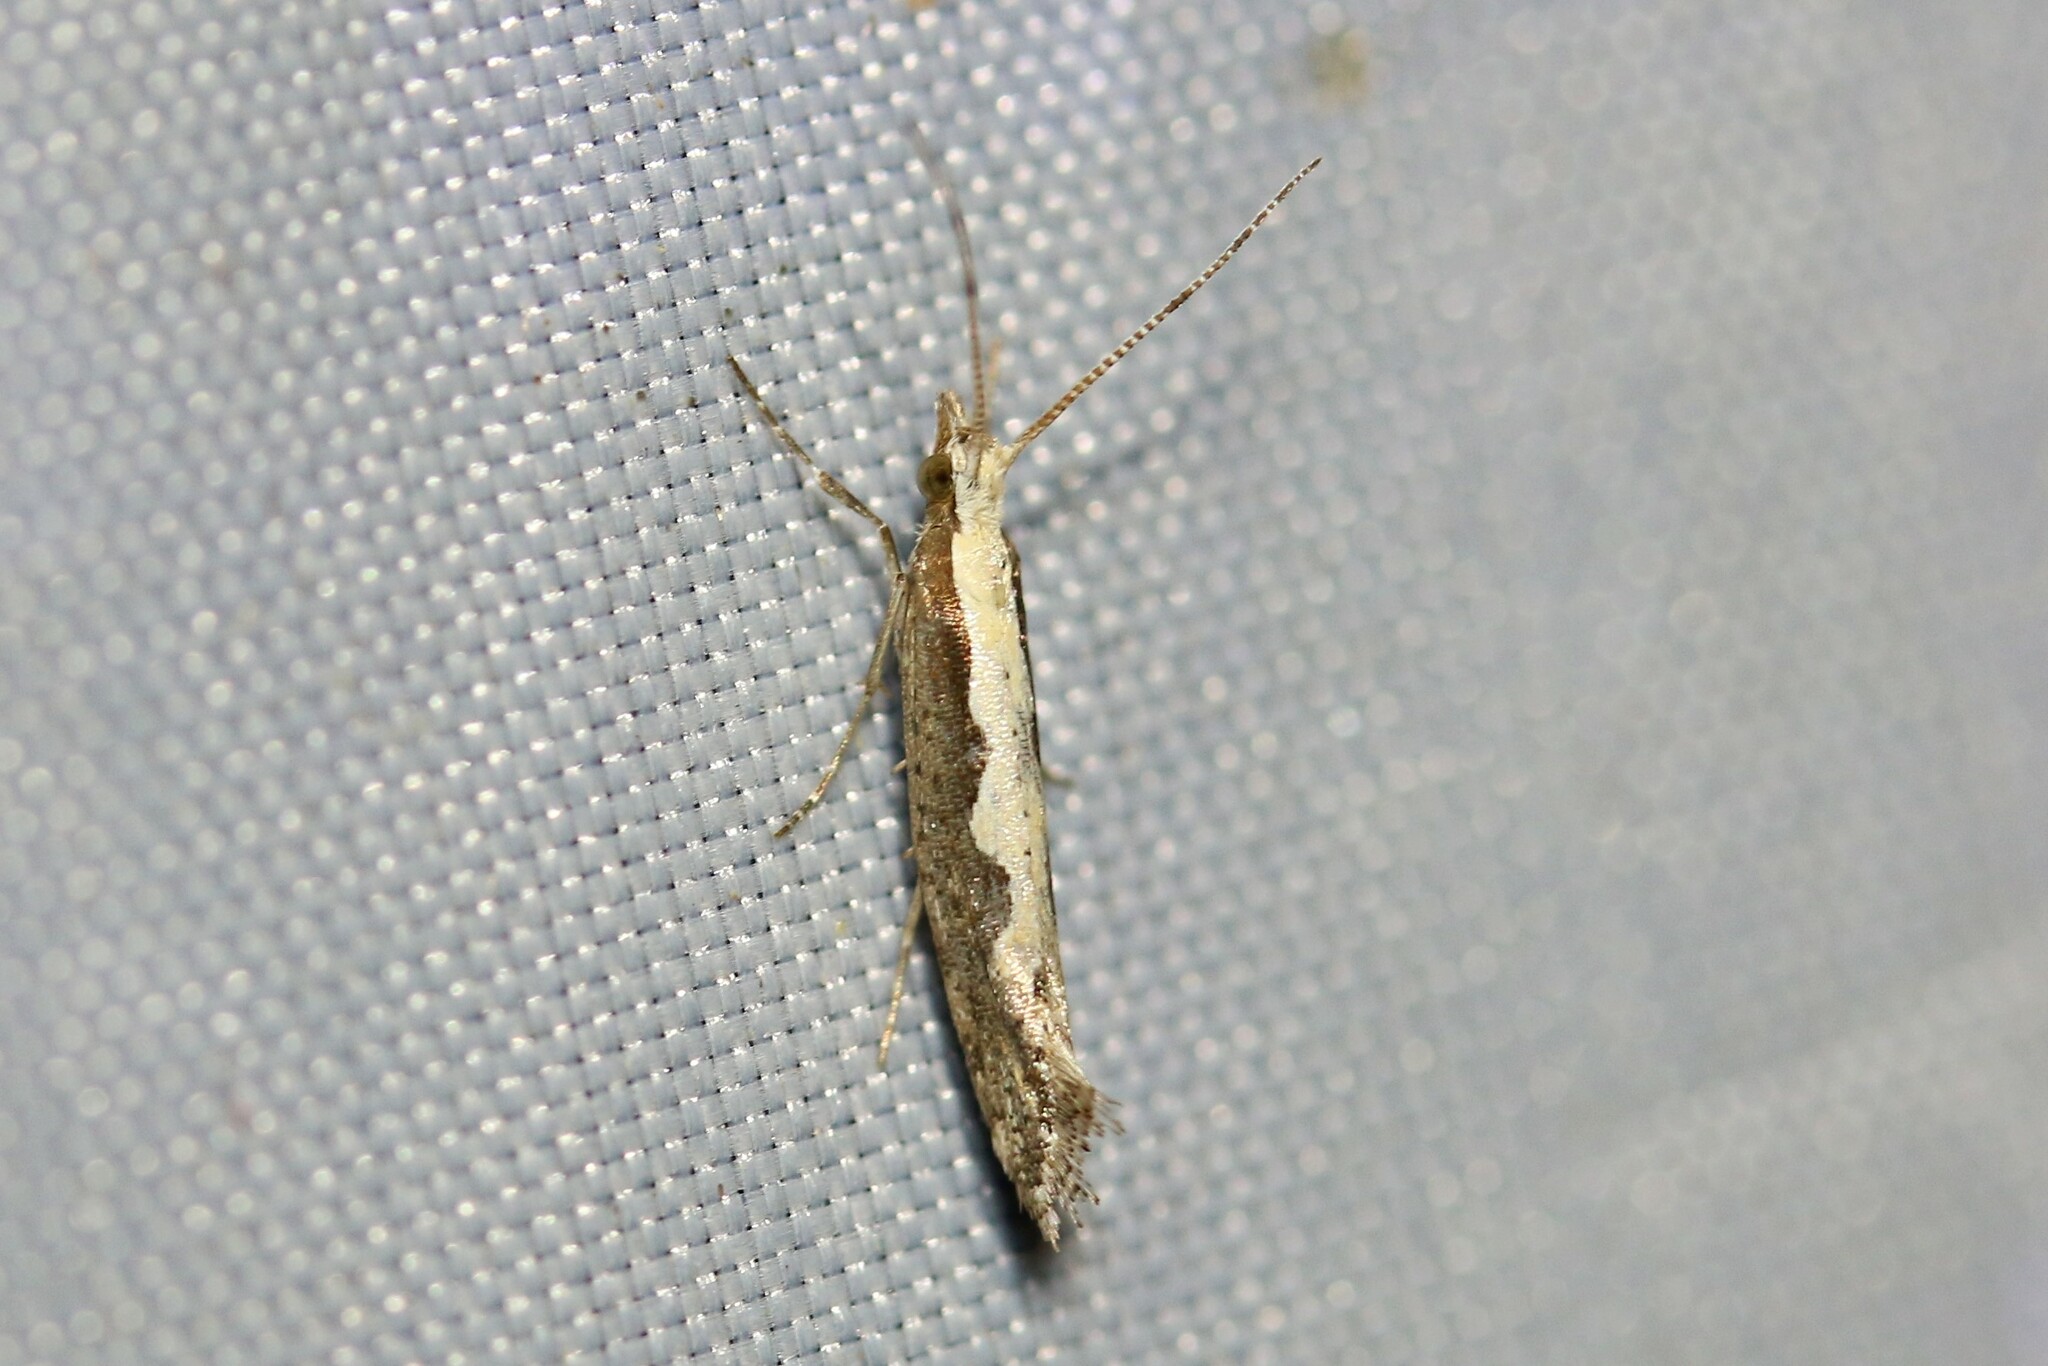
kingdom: Animalia
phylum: Arthropoda
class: Insecta
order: Lepidoptera
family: Plutellidae
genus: Plutella
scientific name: Plutella xylostella
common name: Diamond-back moth
